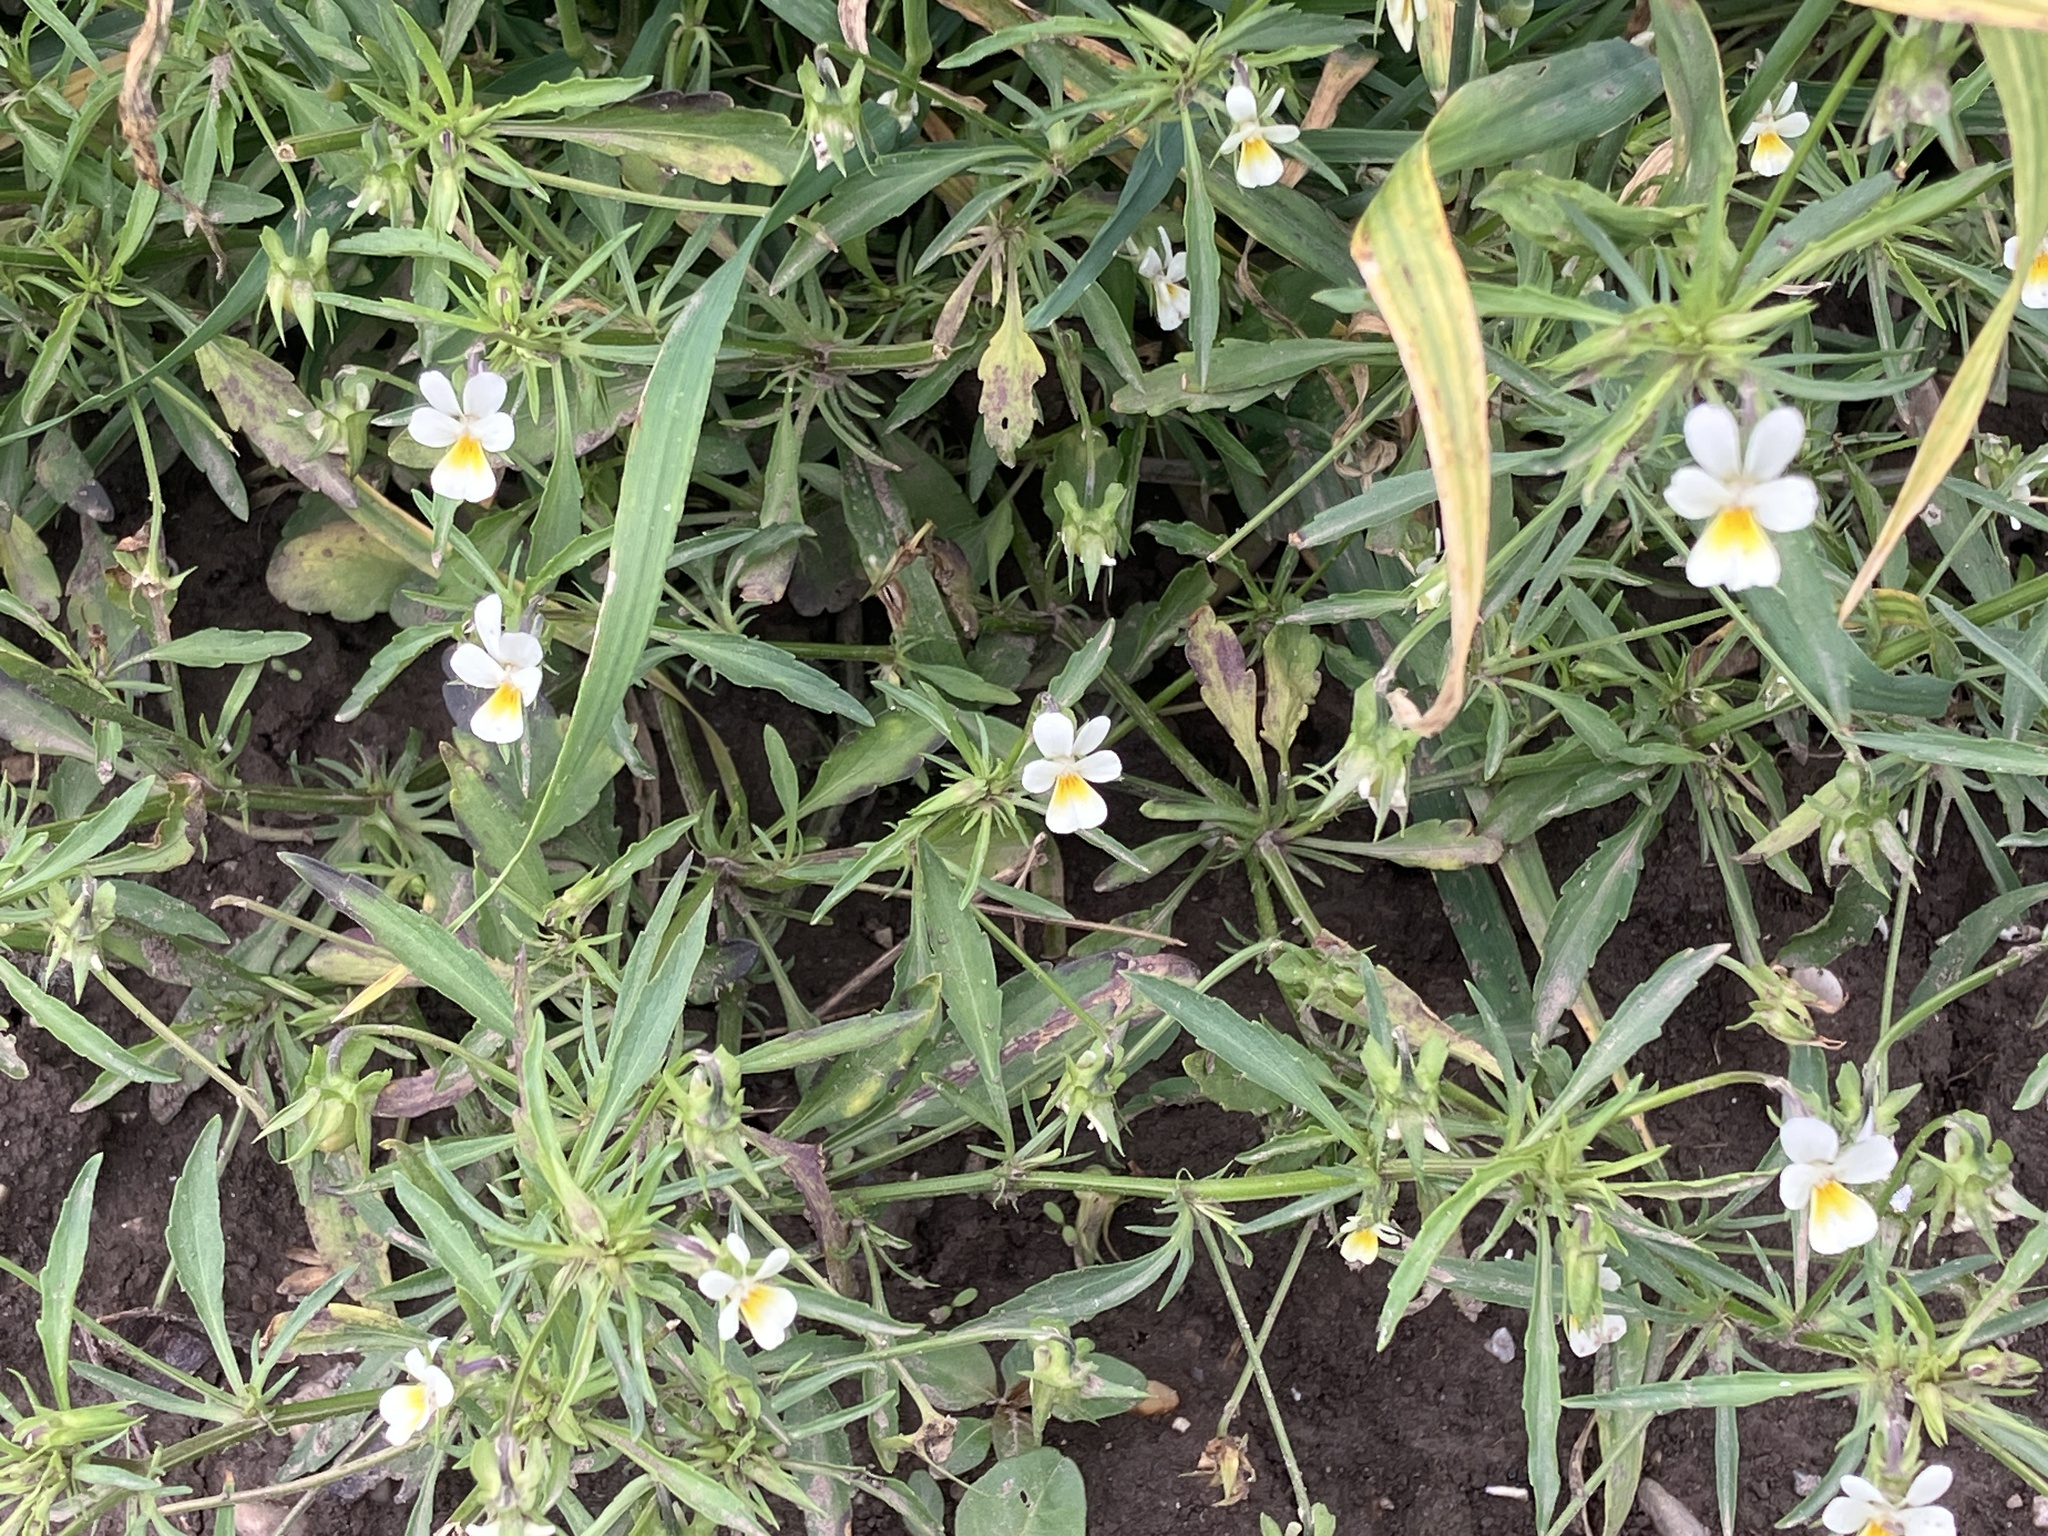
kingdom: Plantae
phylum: Tracheophyta
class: Magnoliopsida
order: Malpighiales
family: Violaceae
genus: Viola
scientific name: Viola arvensis
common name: Field pansy
